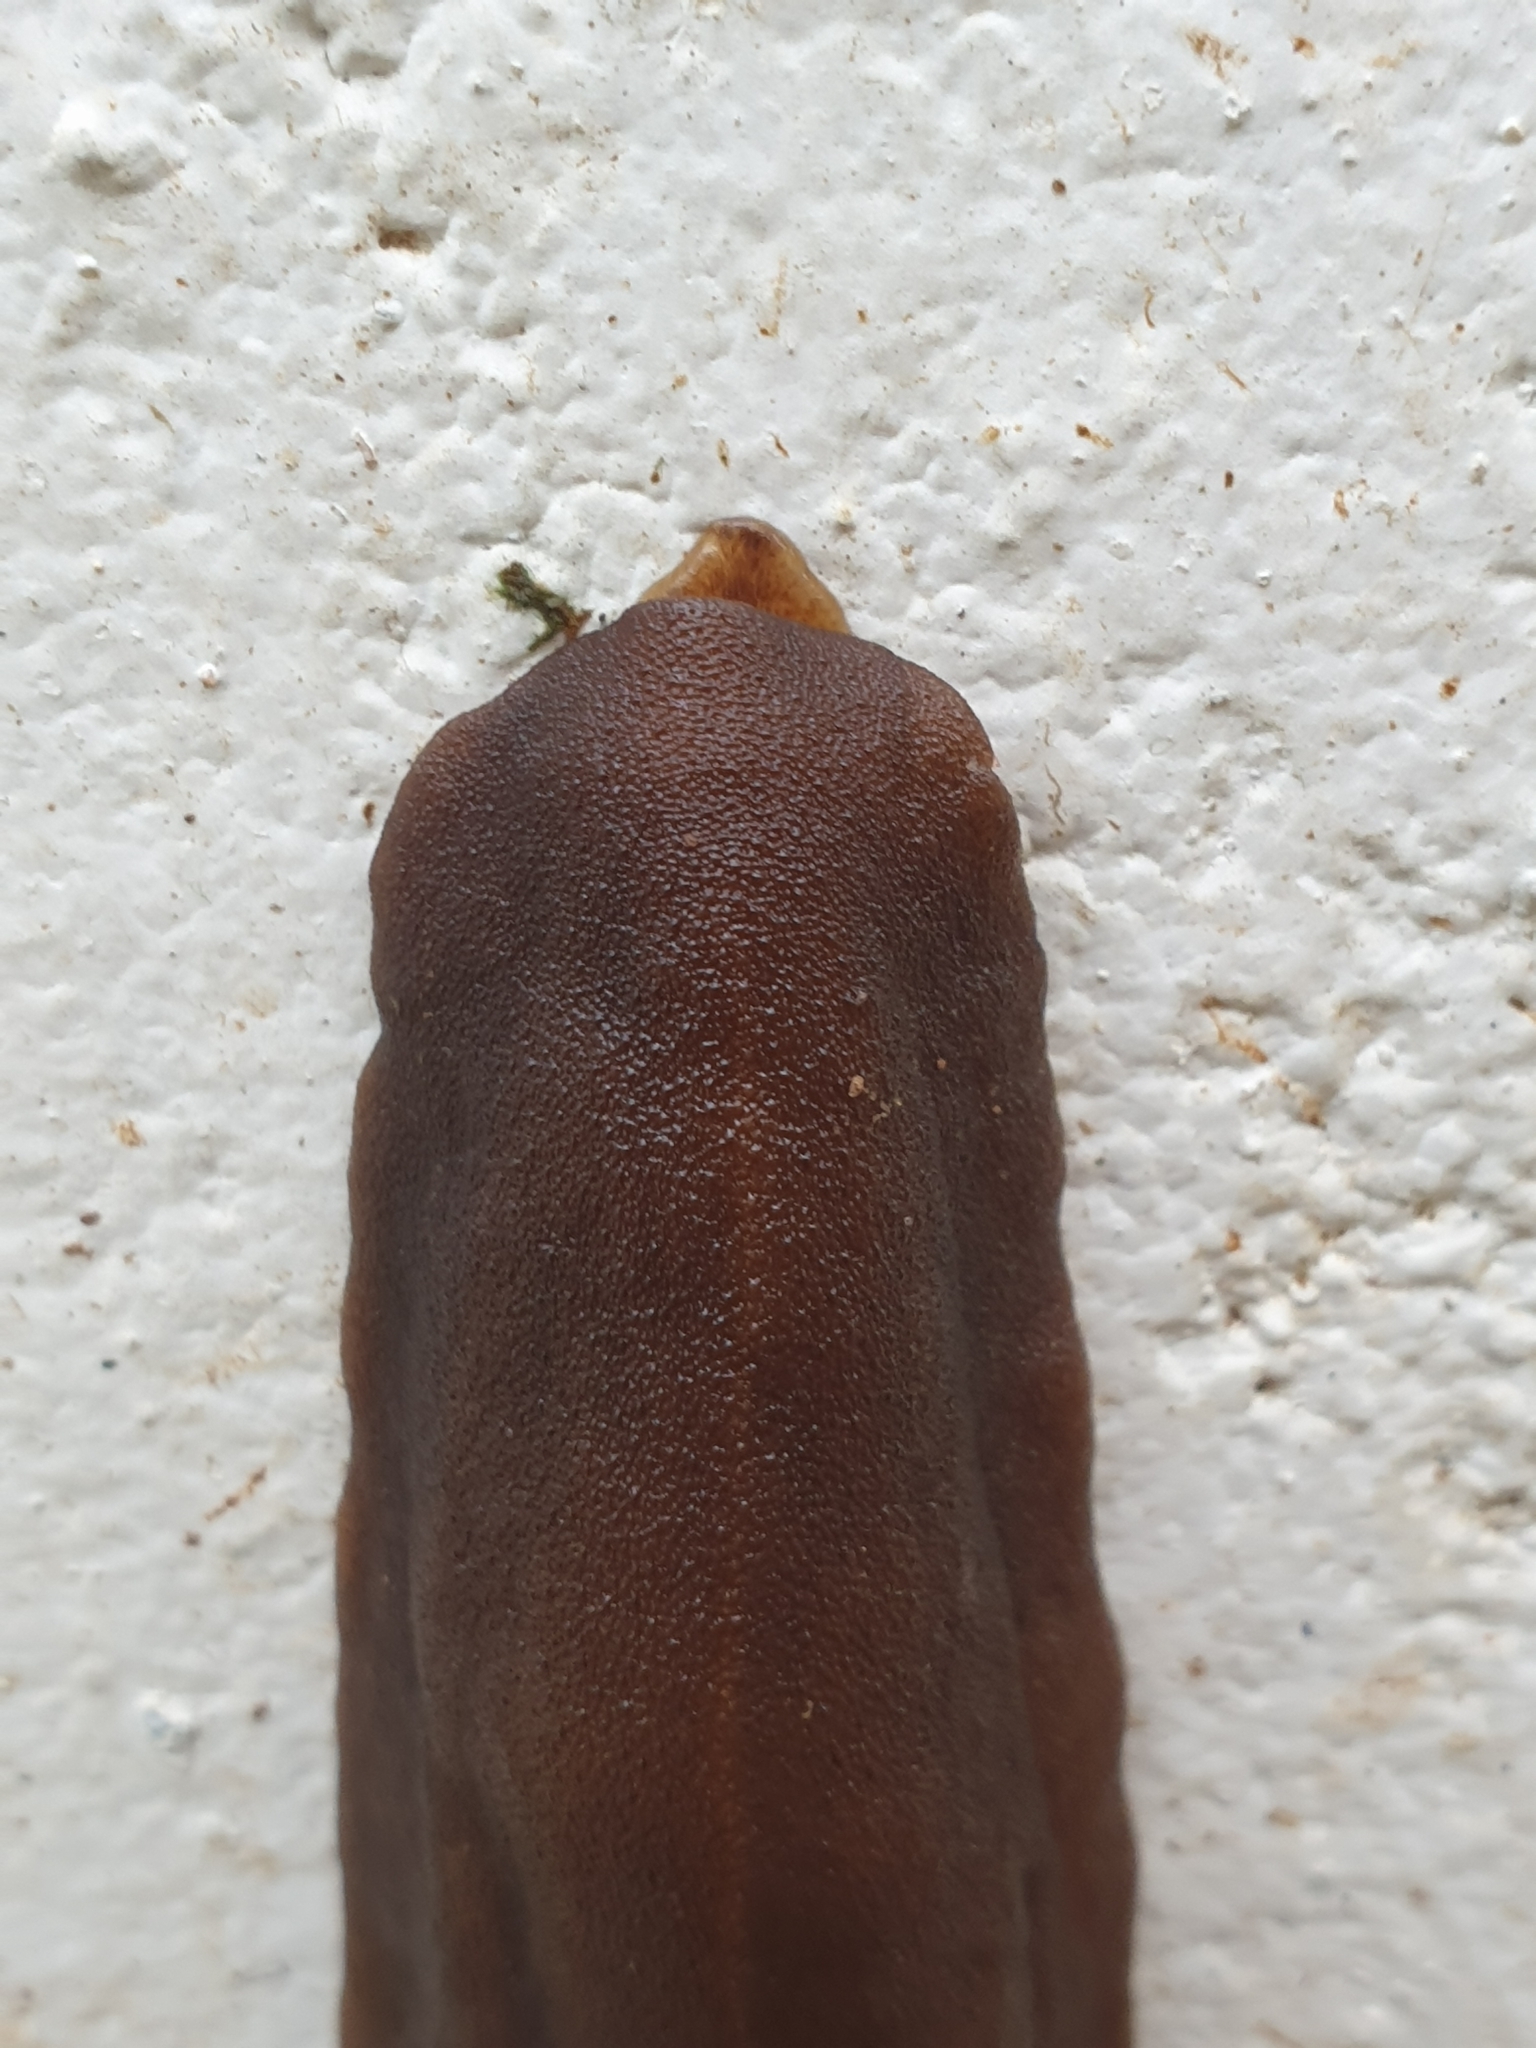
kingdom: Animalia
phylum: Mollusca
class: Gastropoda
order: Systellommatophora
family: Veronicellidae
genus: Laevicaulis
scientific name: Laevicaulis alte
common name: Tropical leatherleaf
